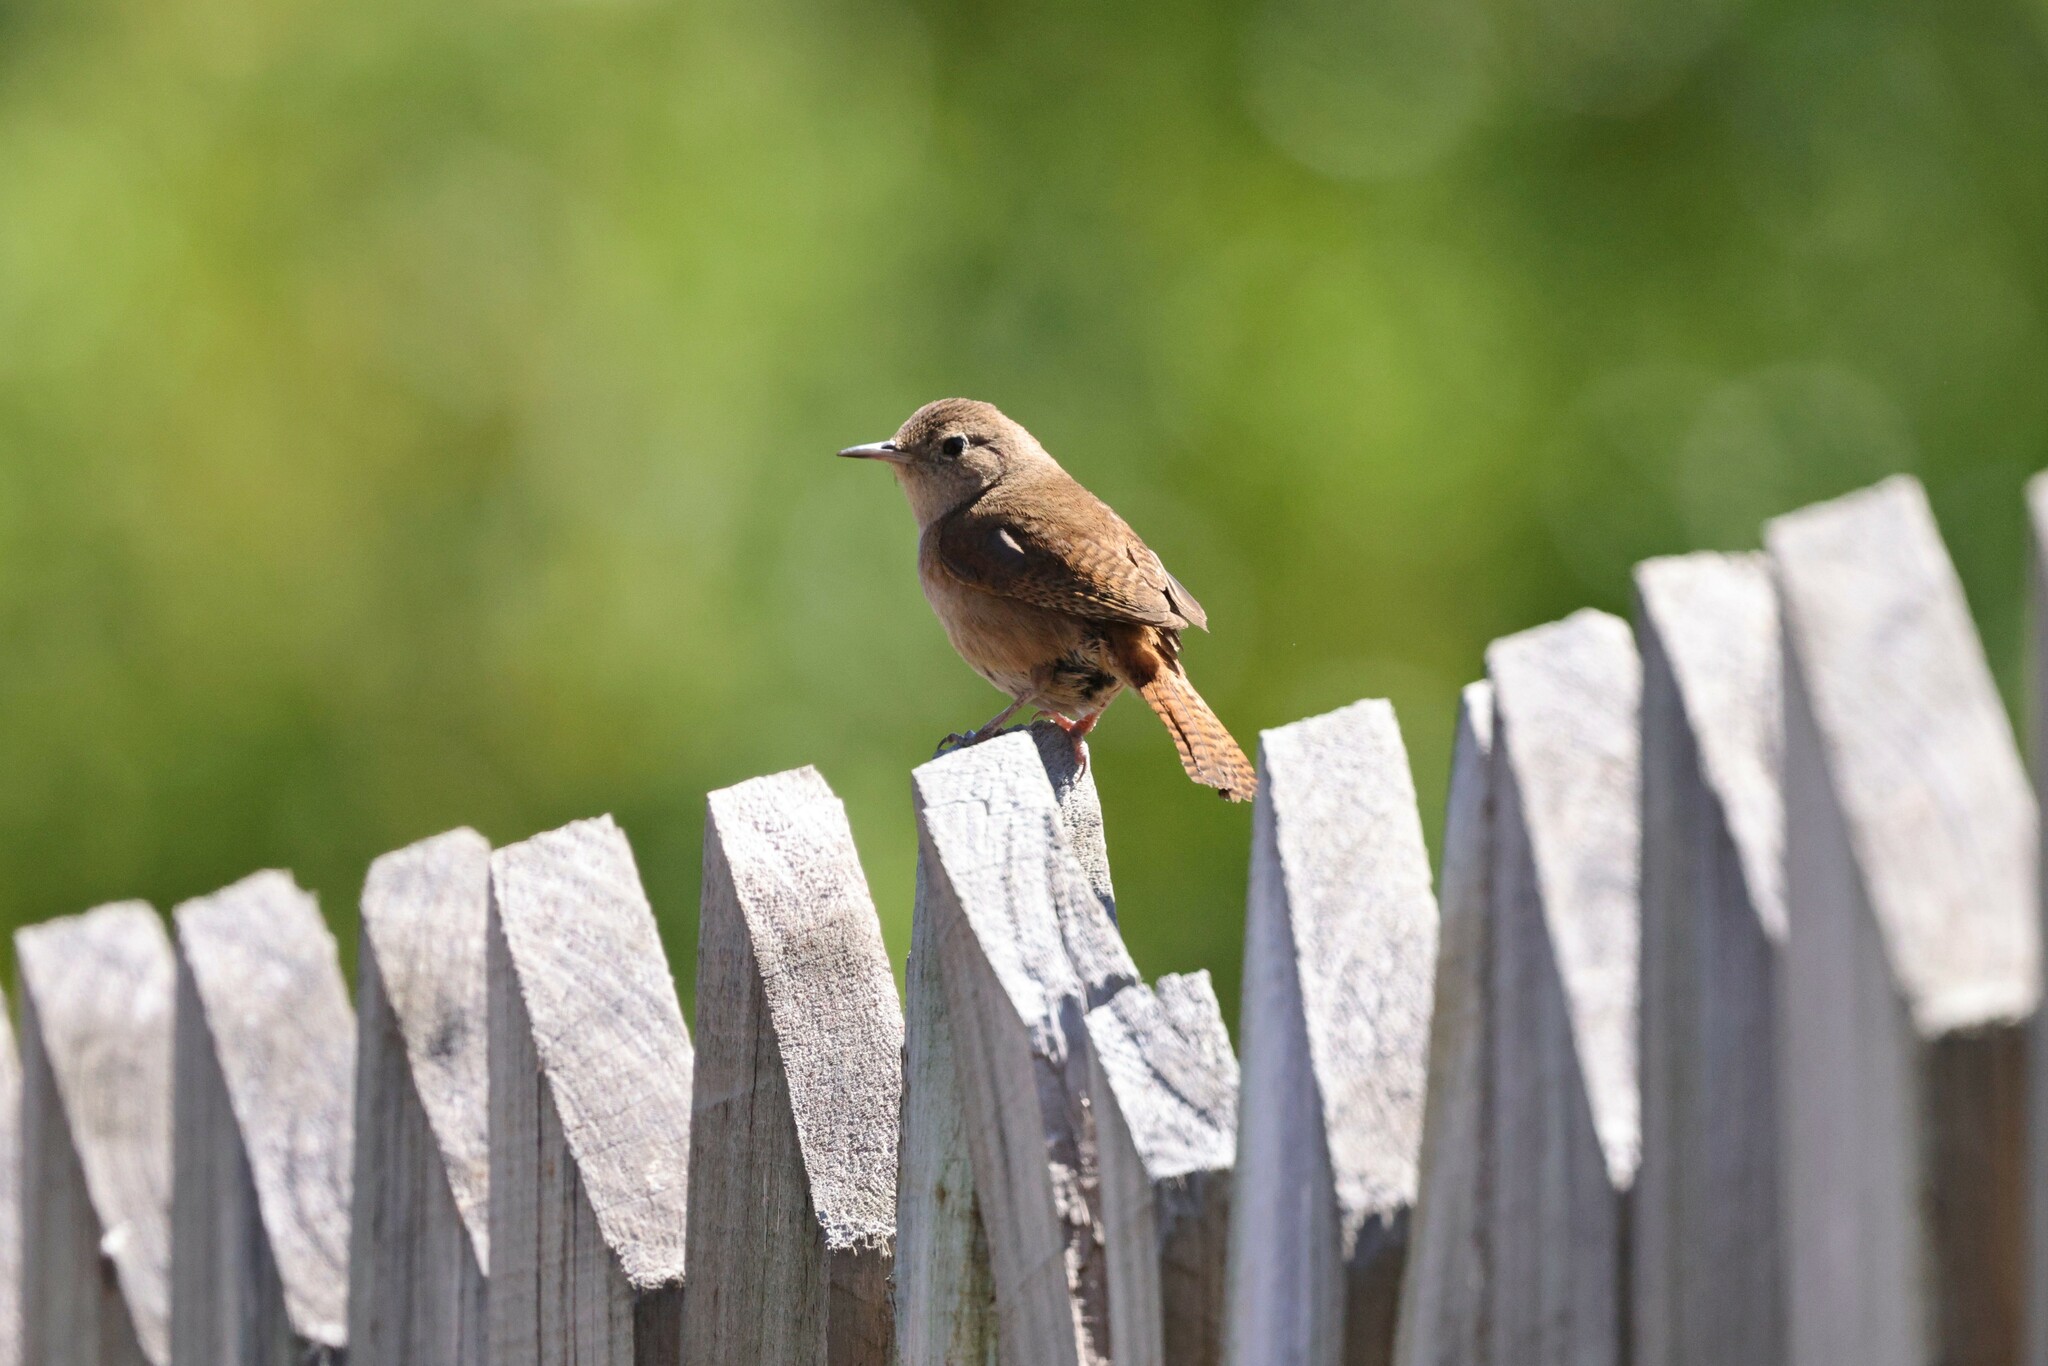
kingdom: Animalia
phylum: Chordata
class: Aves
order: Passeriformes
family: Troglodytidae
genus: Troglodytes
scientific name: Troglodytes aedon
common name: House wren
